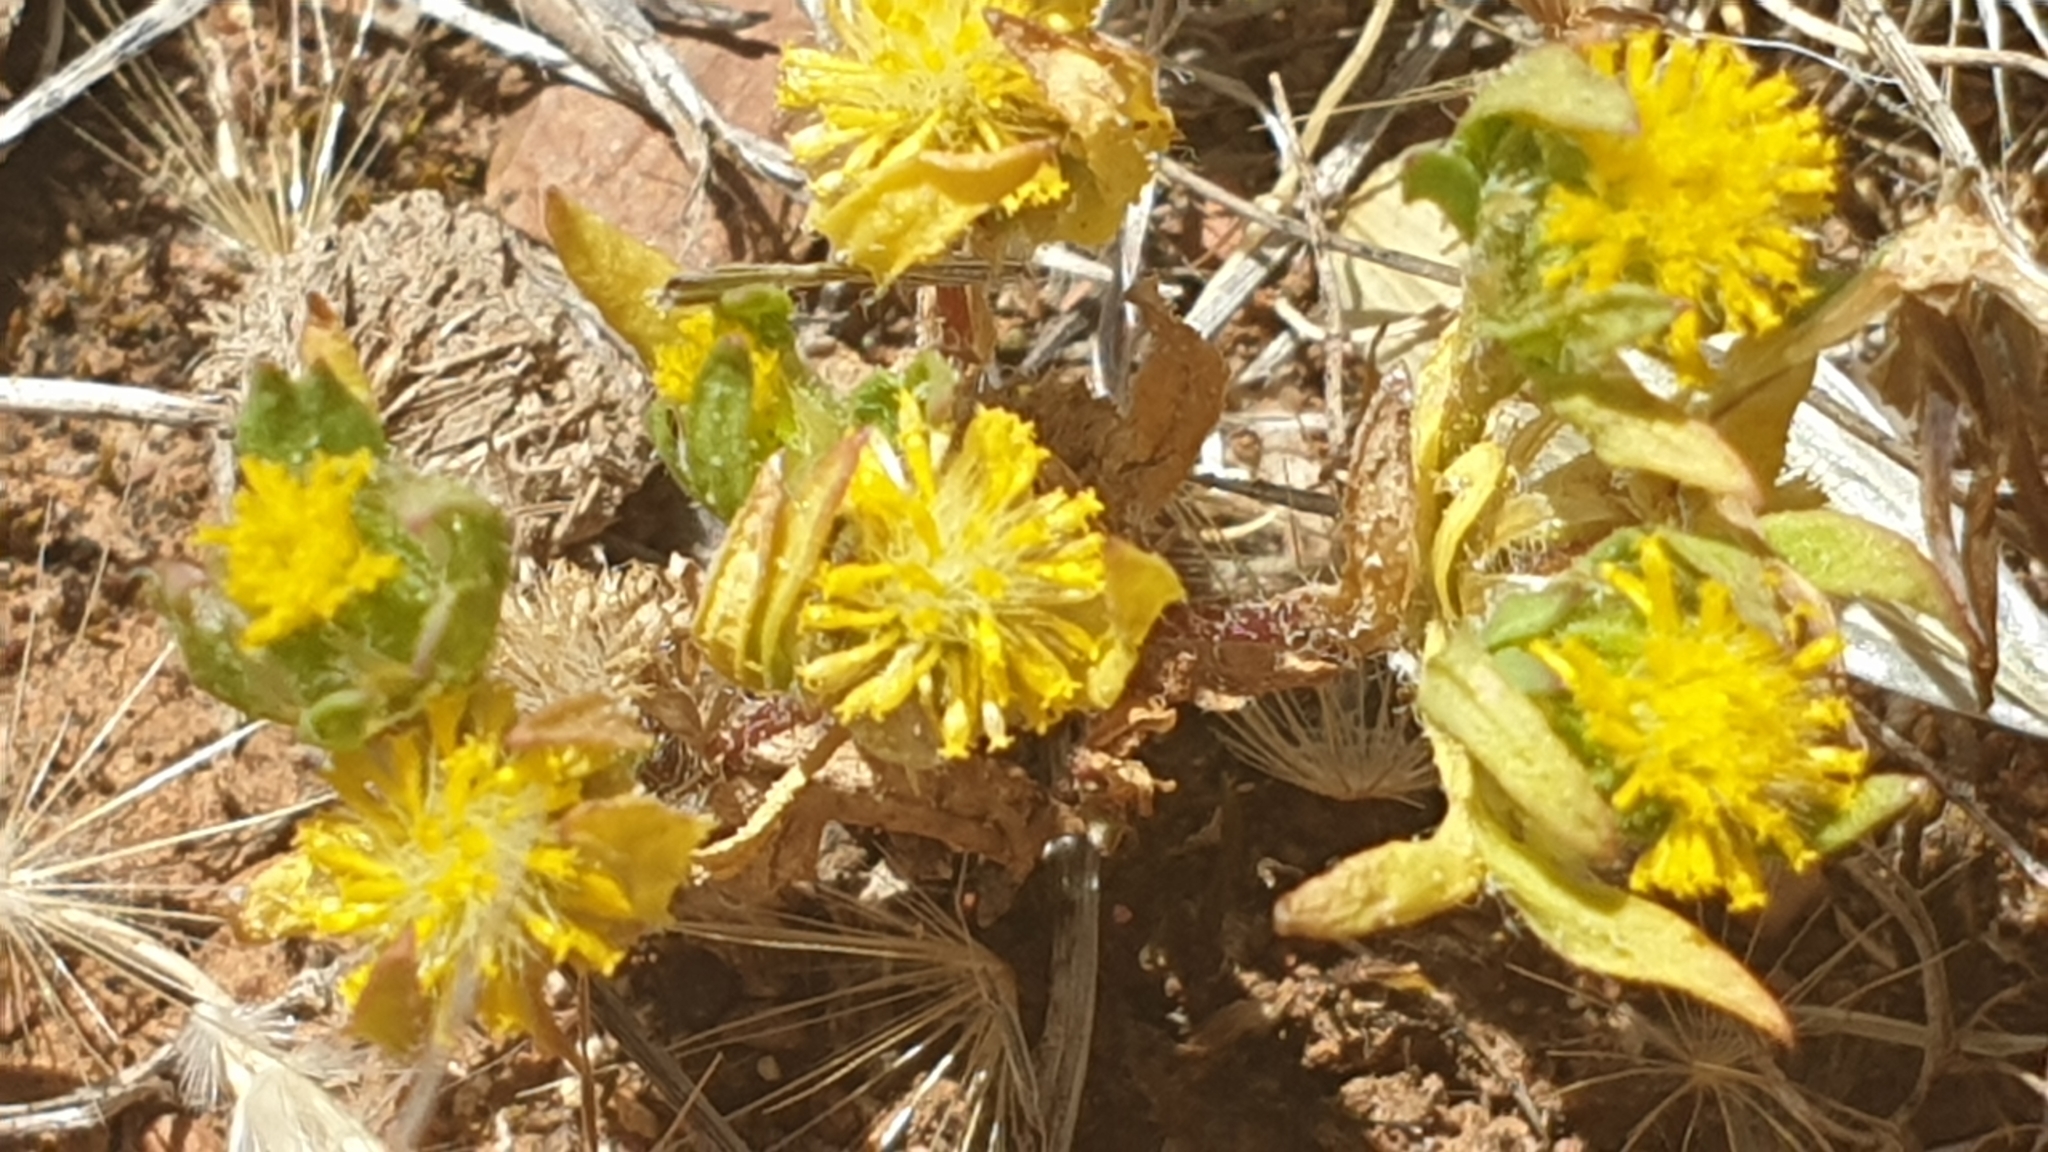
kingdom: Plantae
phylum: Tracheophyta
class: Magnoliopsida
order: Asterales
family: Asteraceae
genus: Podotheca
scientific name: Podotheca angustifolia
